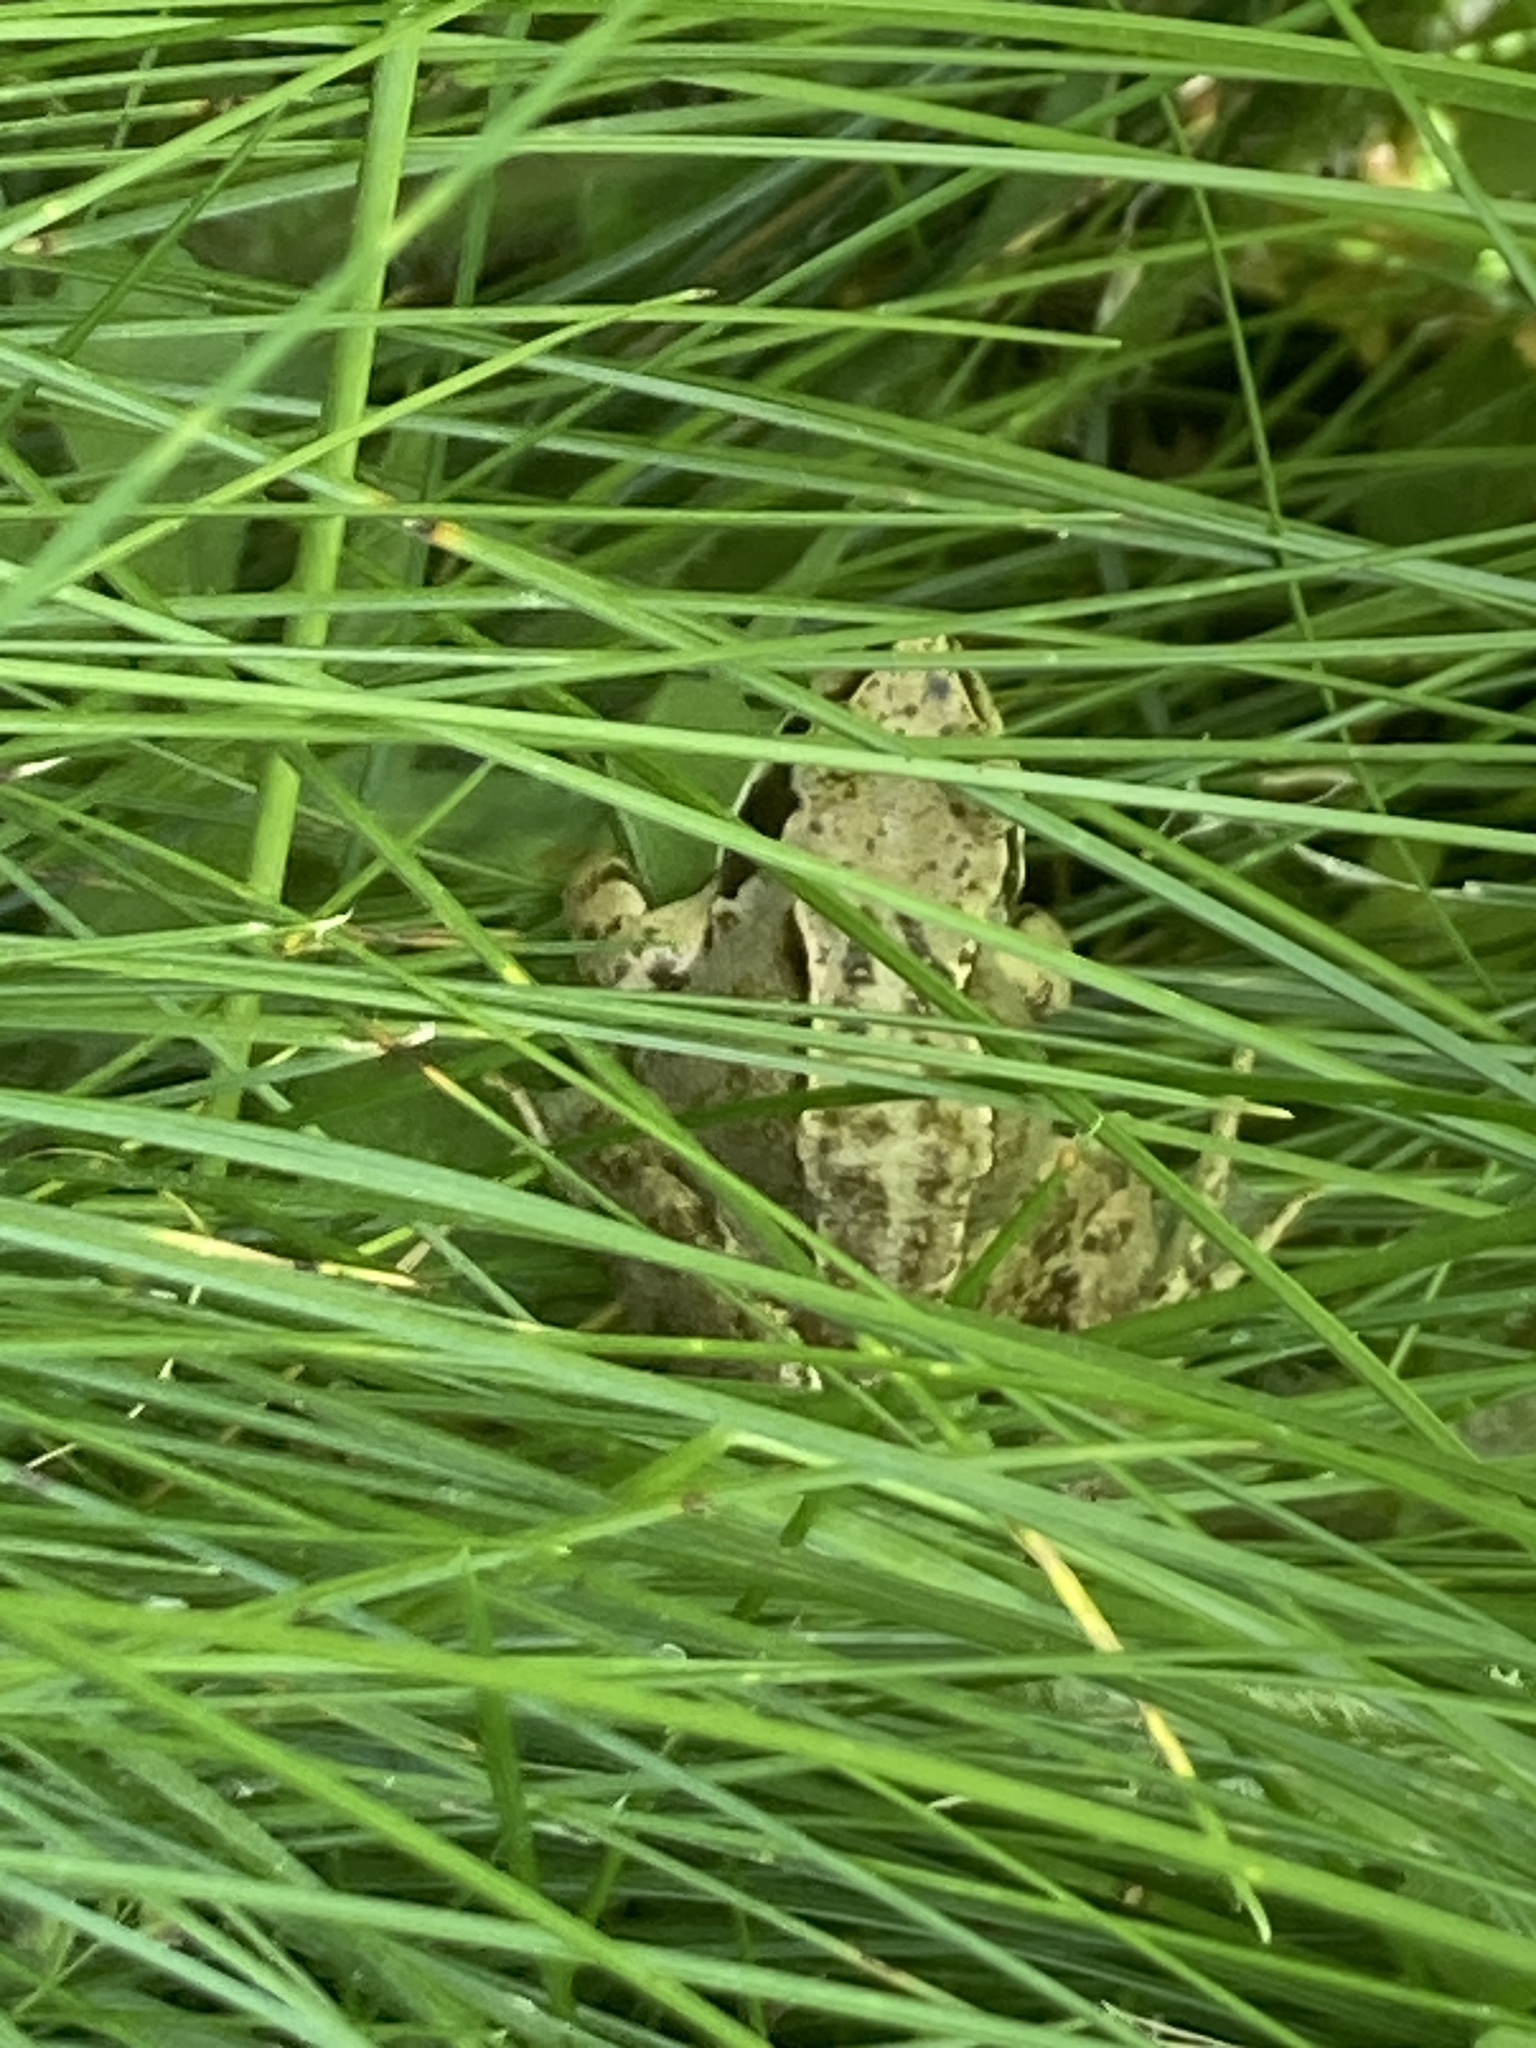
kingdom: Animalia
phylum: Chordata
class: Amphibia
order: Anura
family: Ranidae
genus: Rana
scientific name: Rana temporaria
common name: Common frog
